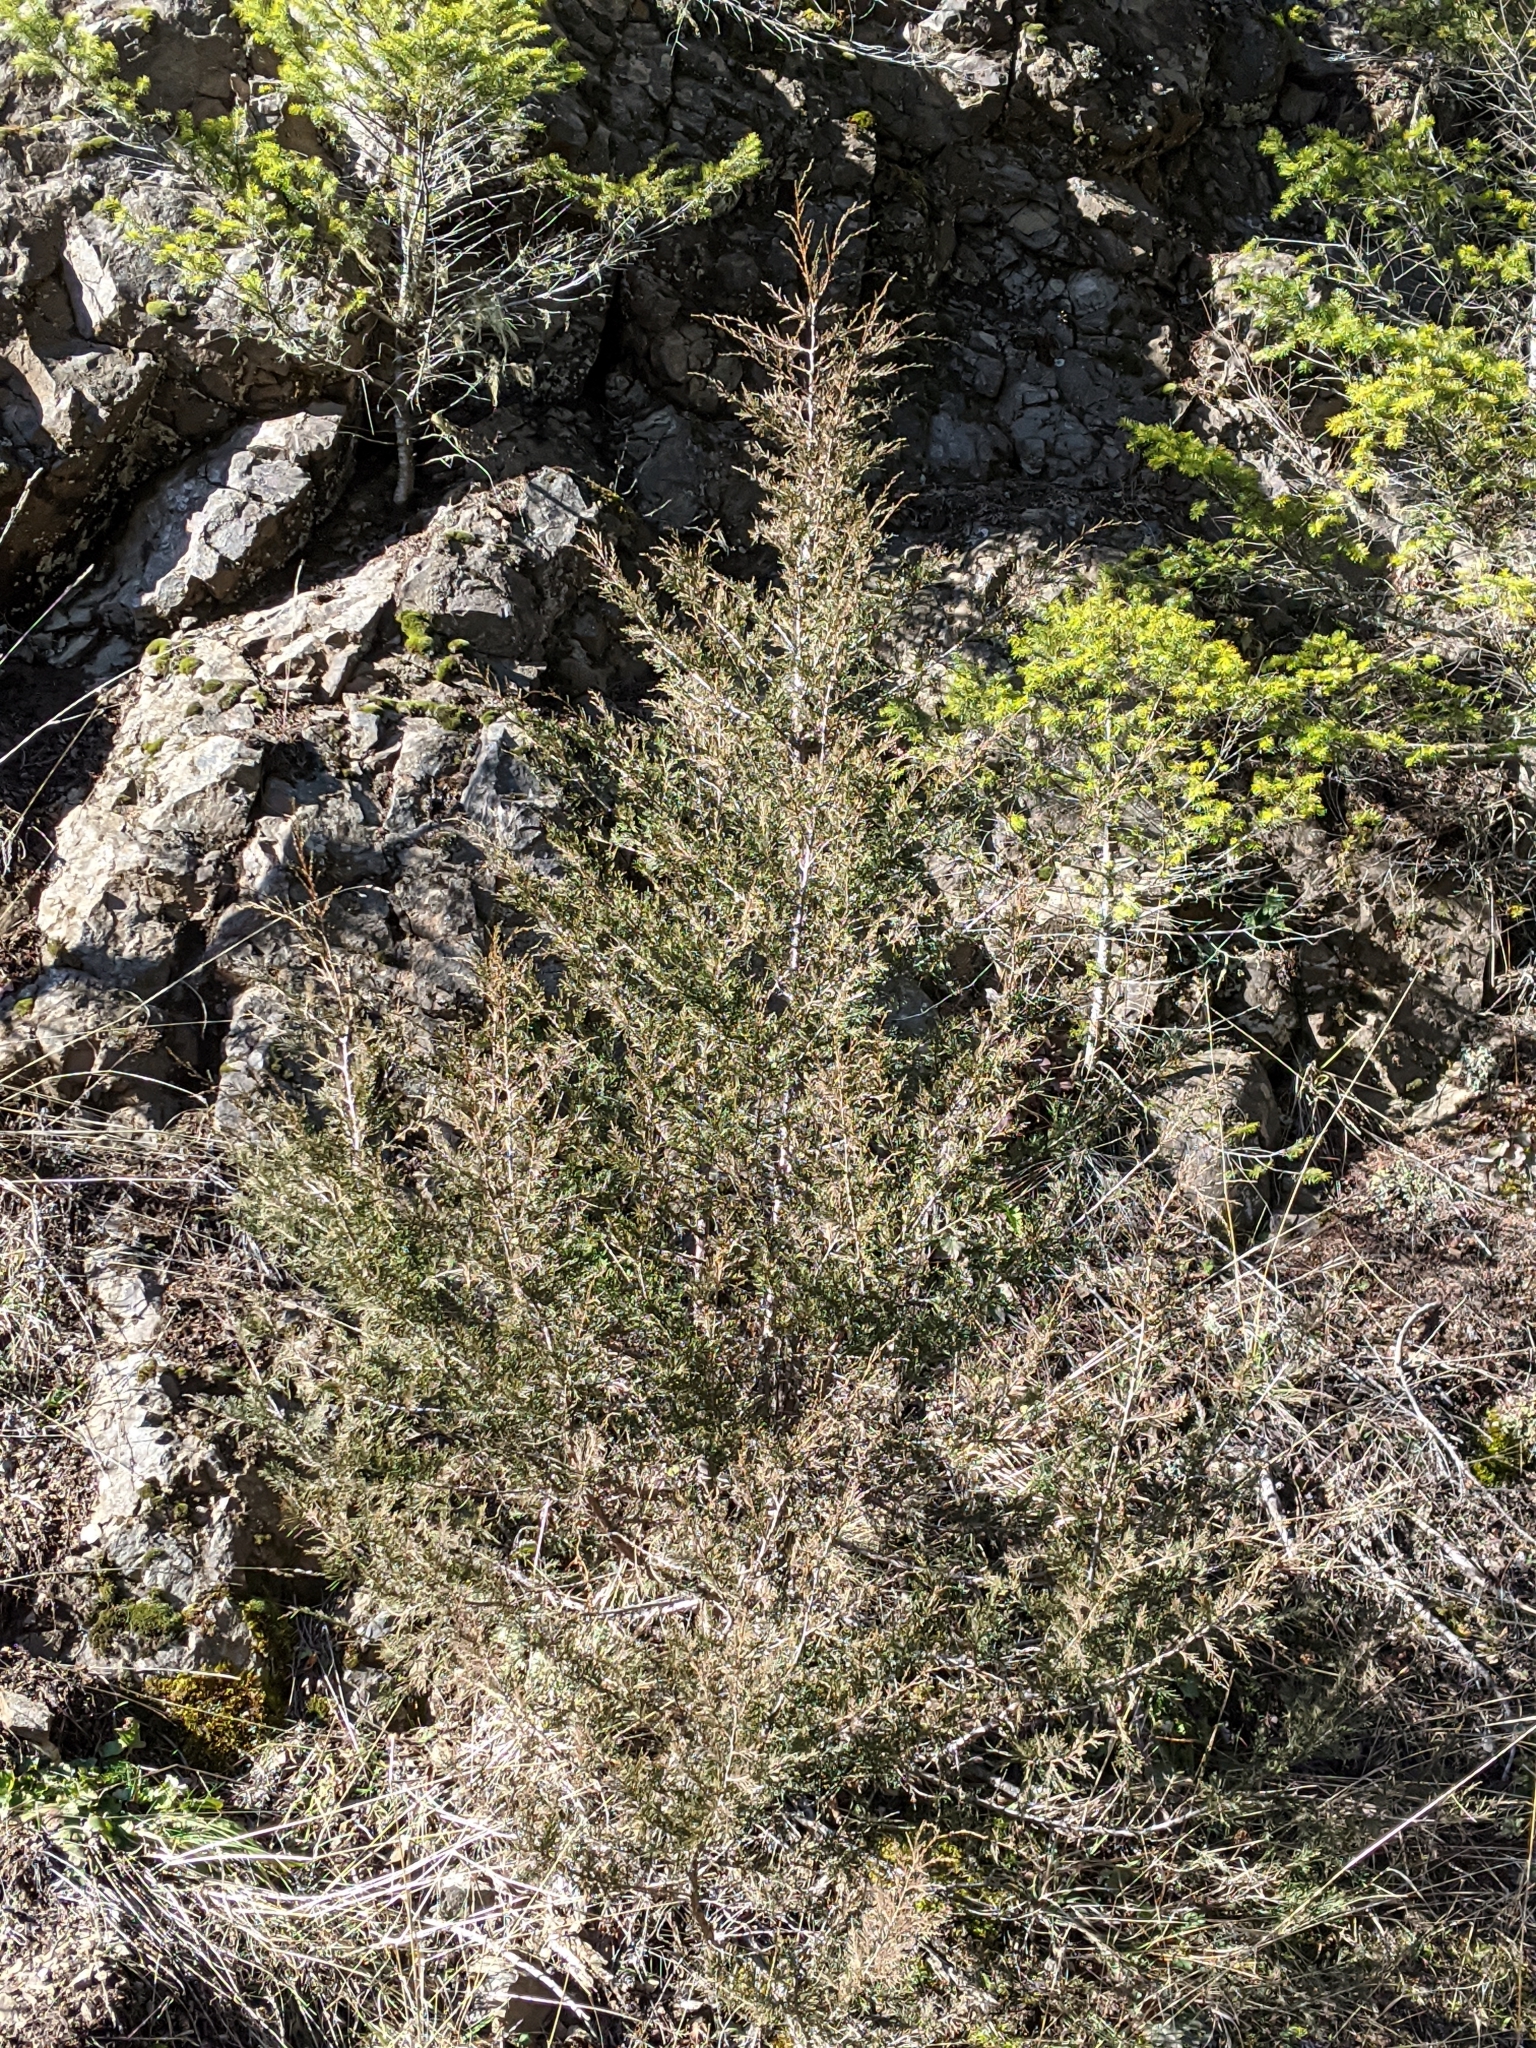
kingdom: Plantae
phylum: Tracheophyta
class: Pinopsida
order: Pinales
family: Cupressaceae
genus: Juniperus
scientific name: Juniperus scopulorum
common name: Rocky mountain juniper
